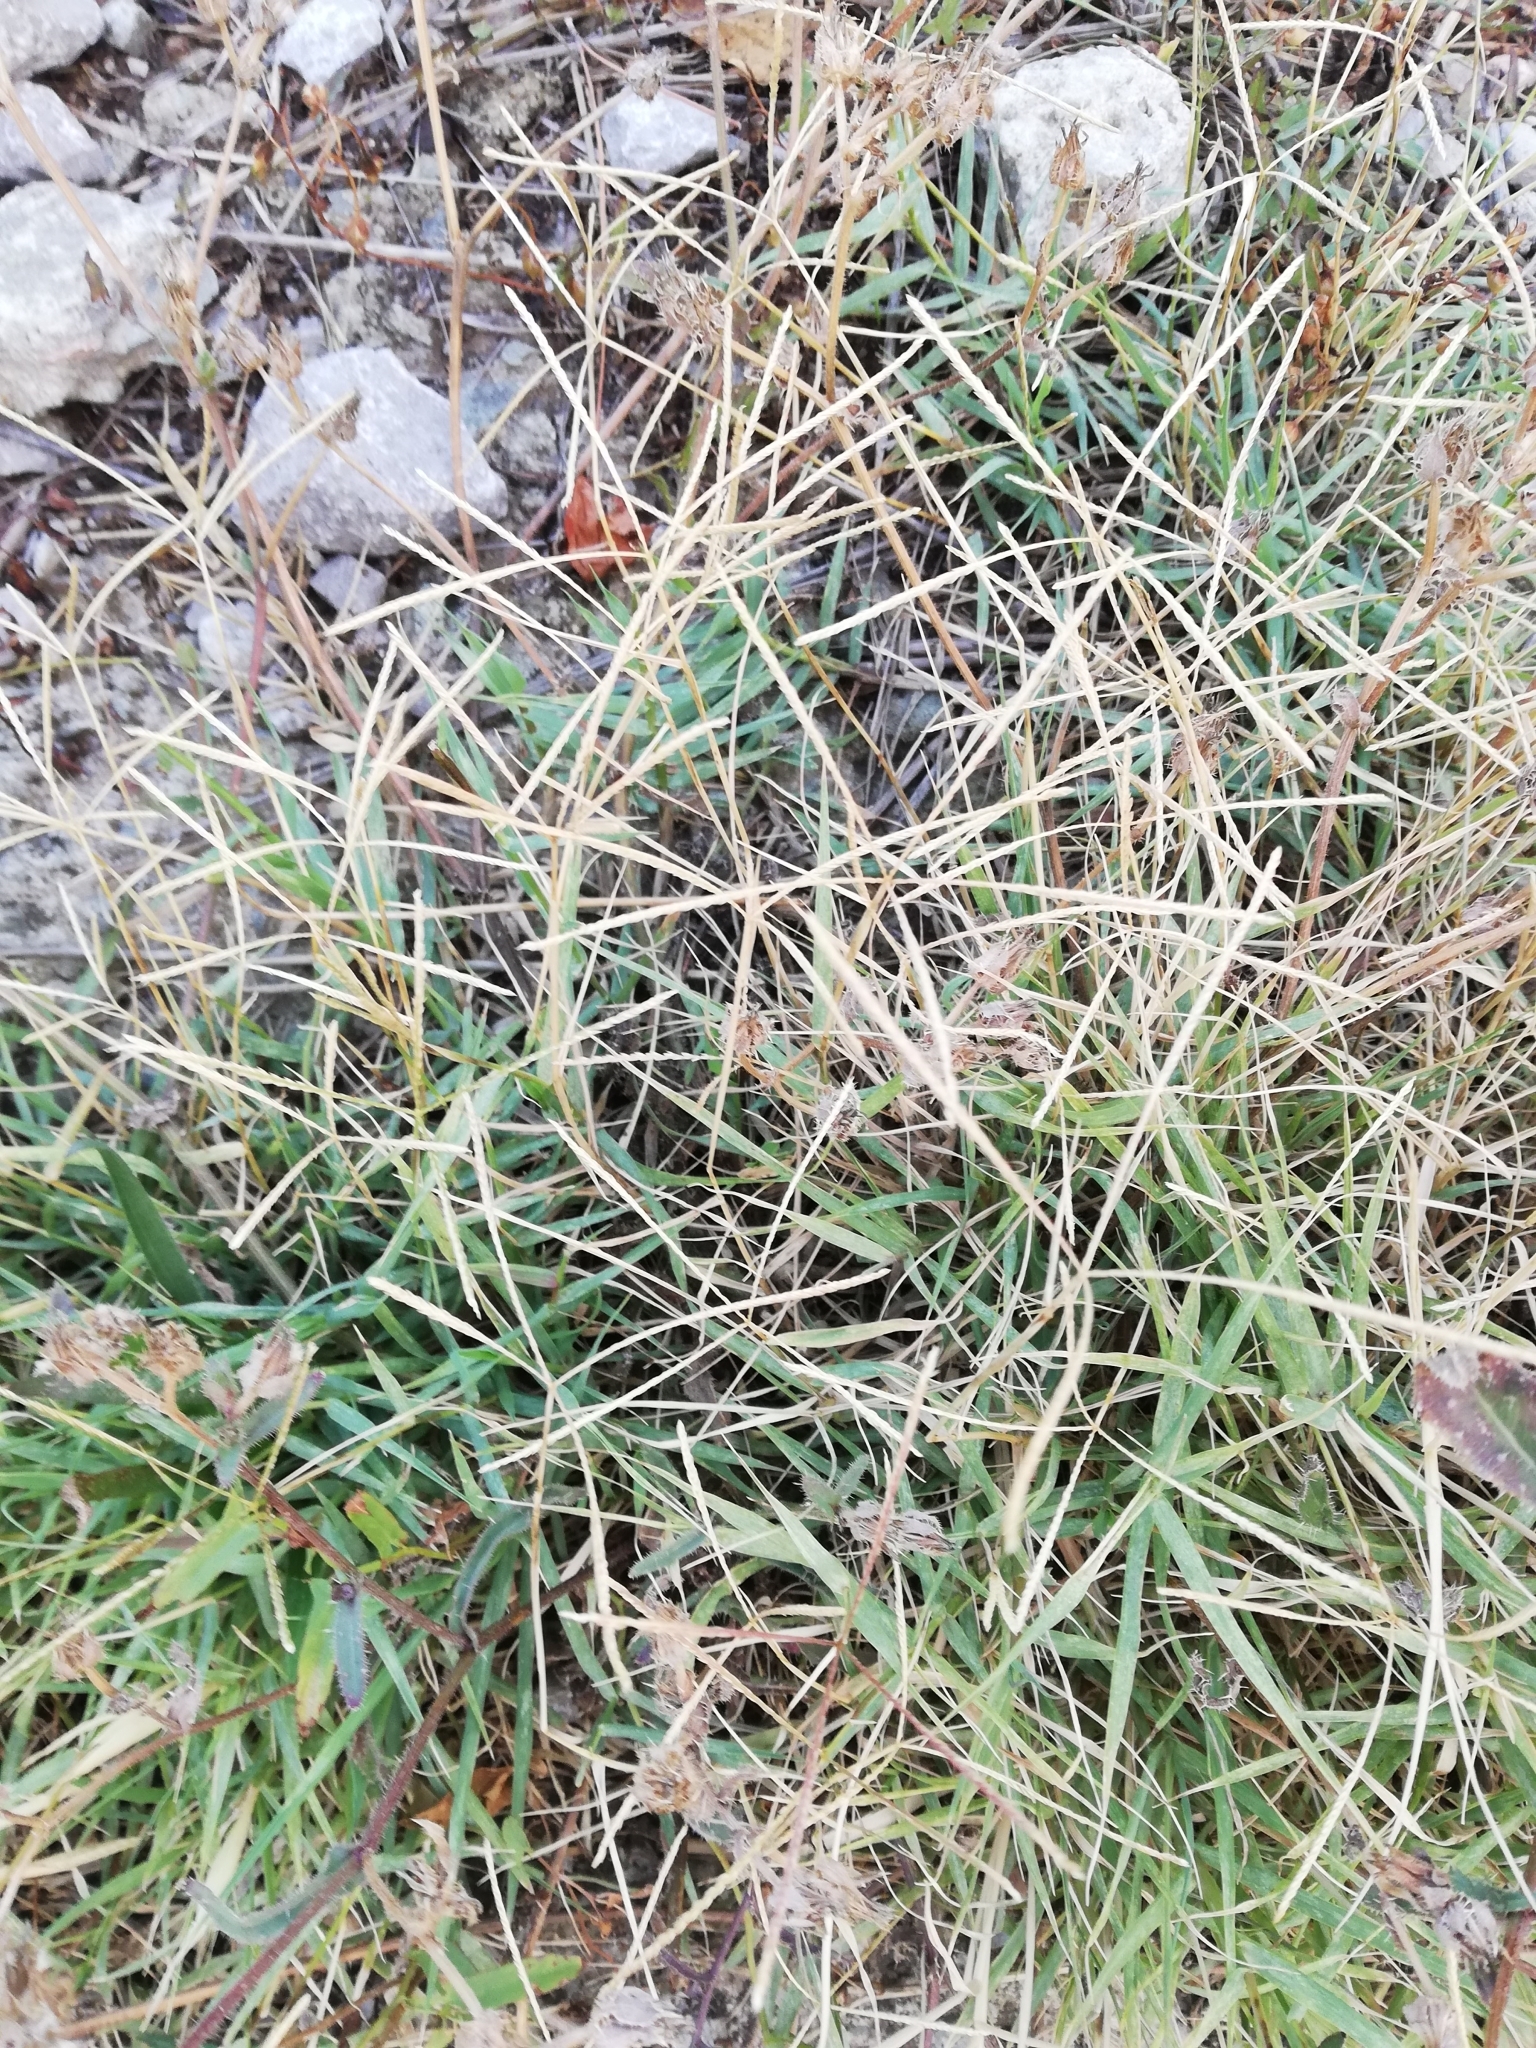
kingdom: Plantae
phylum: Tracheophyta
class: Liliopsida
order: Poales
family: Poaceae
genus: Cynodon
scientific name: Cynodon dactylon
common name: Bermuda grass
